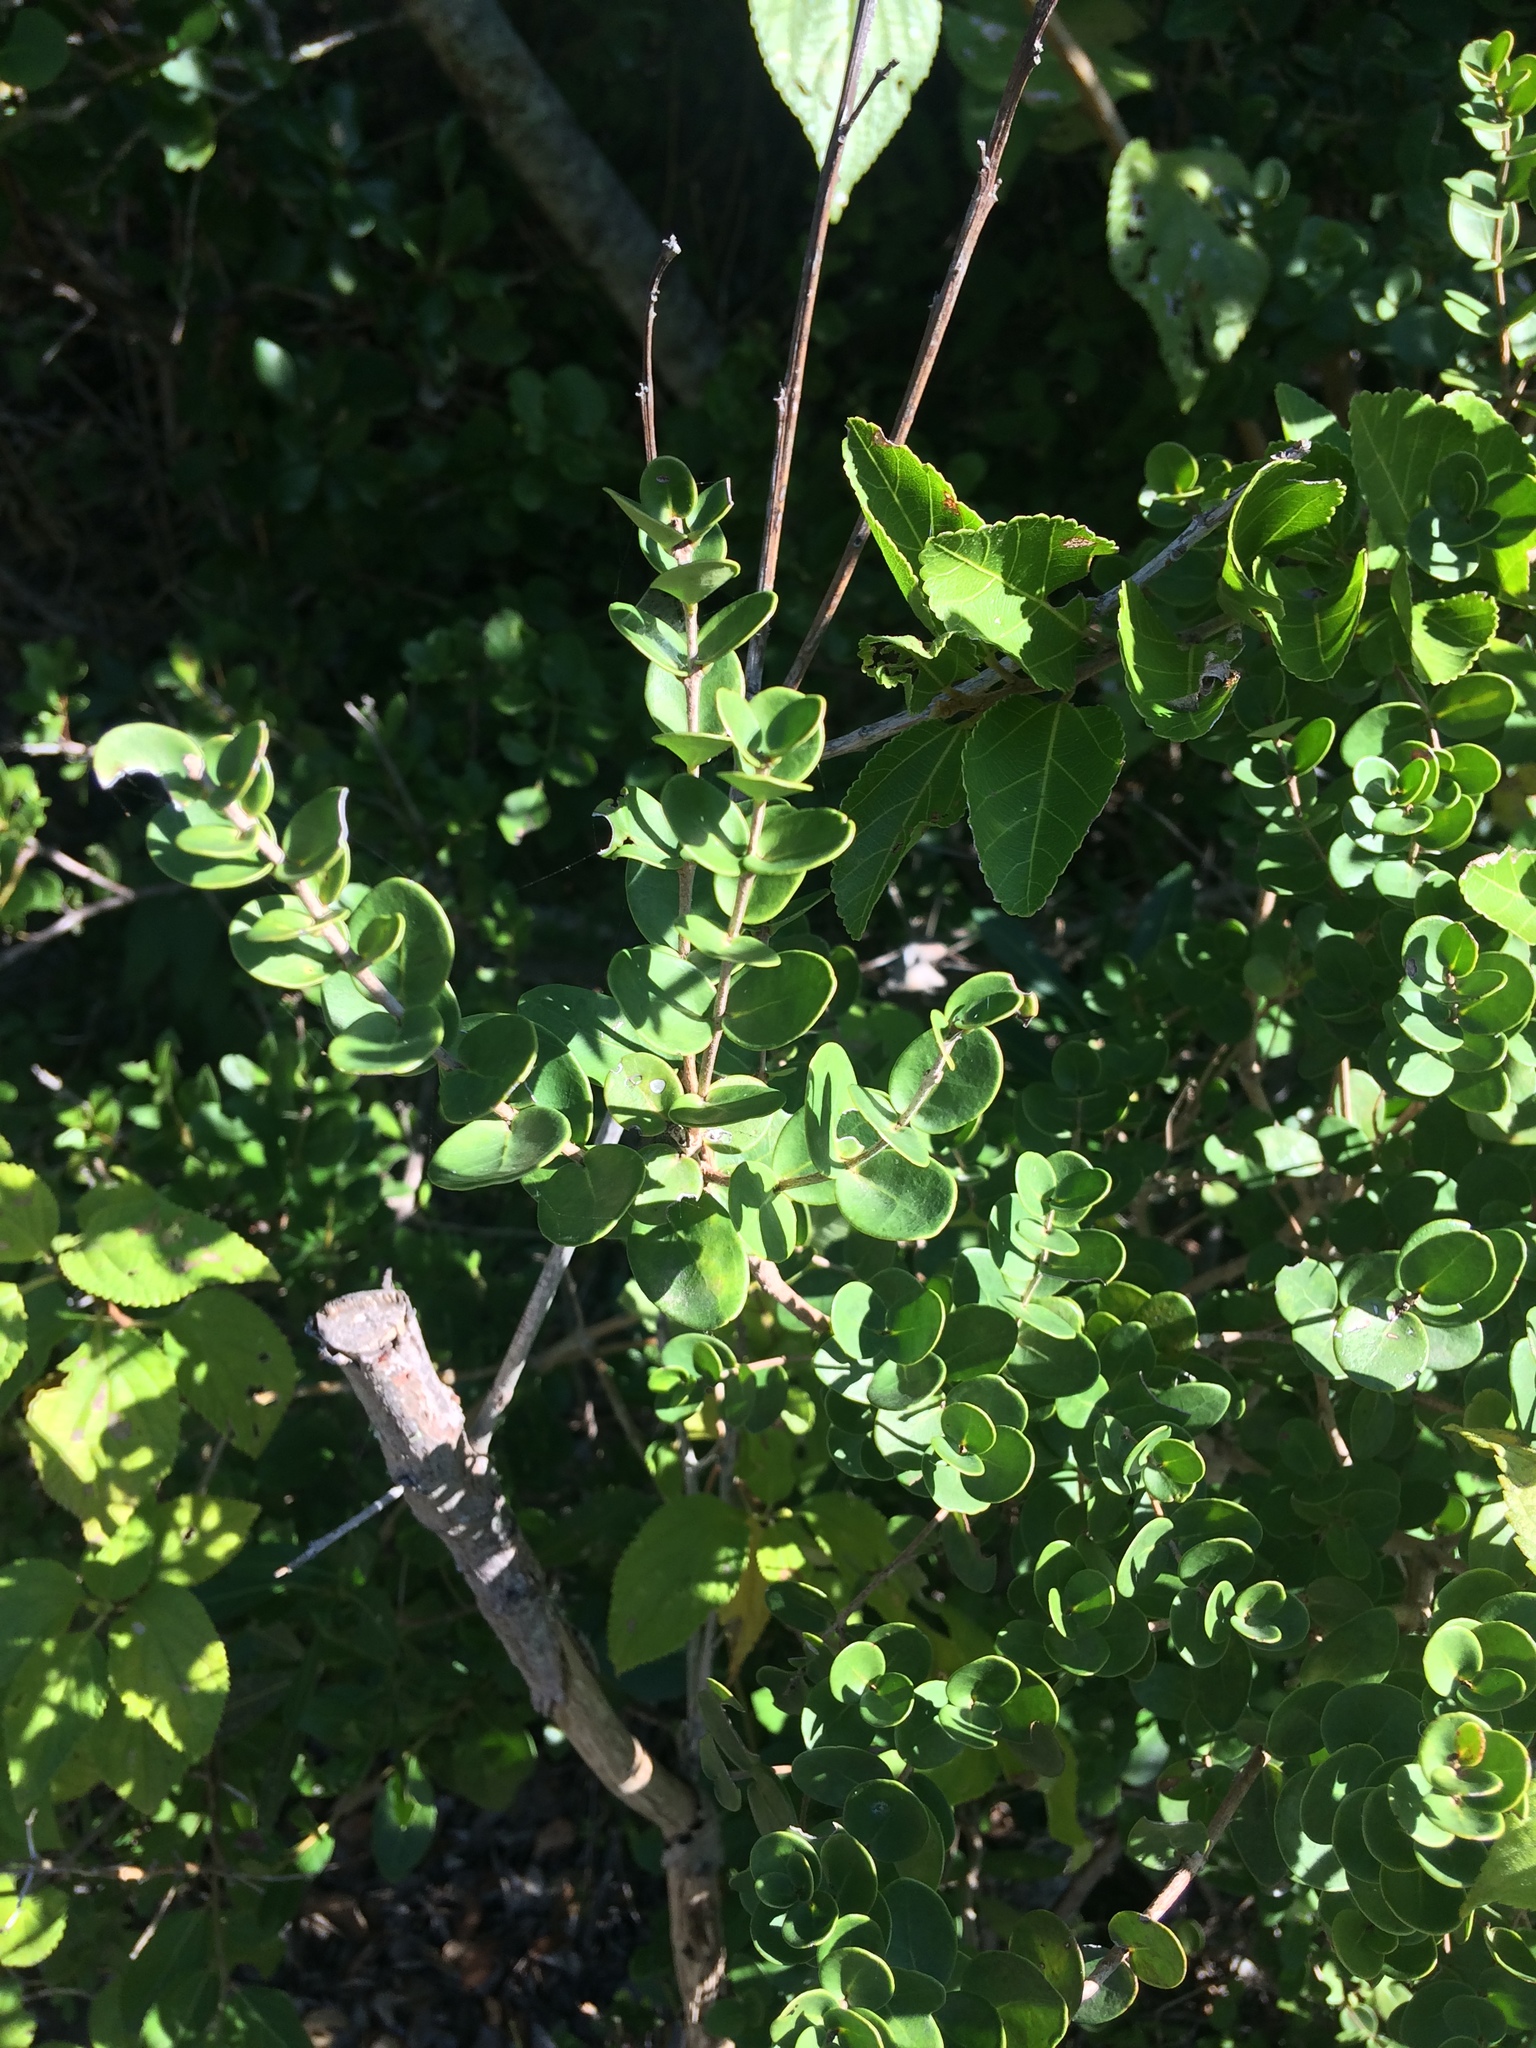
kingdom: Plantae
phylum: Tracheophyta
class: Magnoliopsida
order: Myrtales
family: Myrtaceae
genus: Eugenia
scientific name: Eugenia capensis
